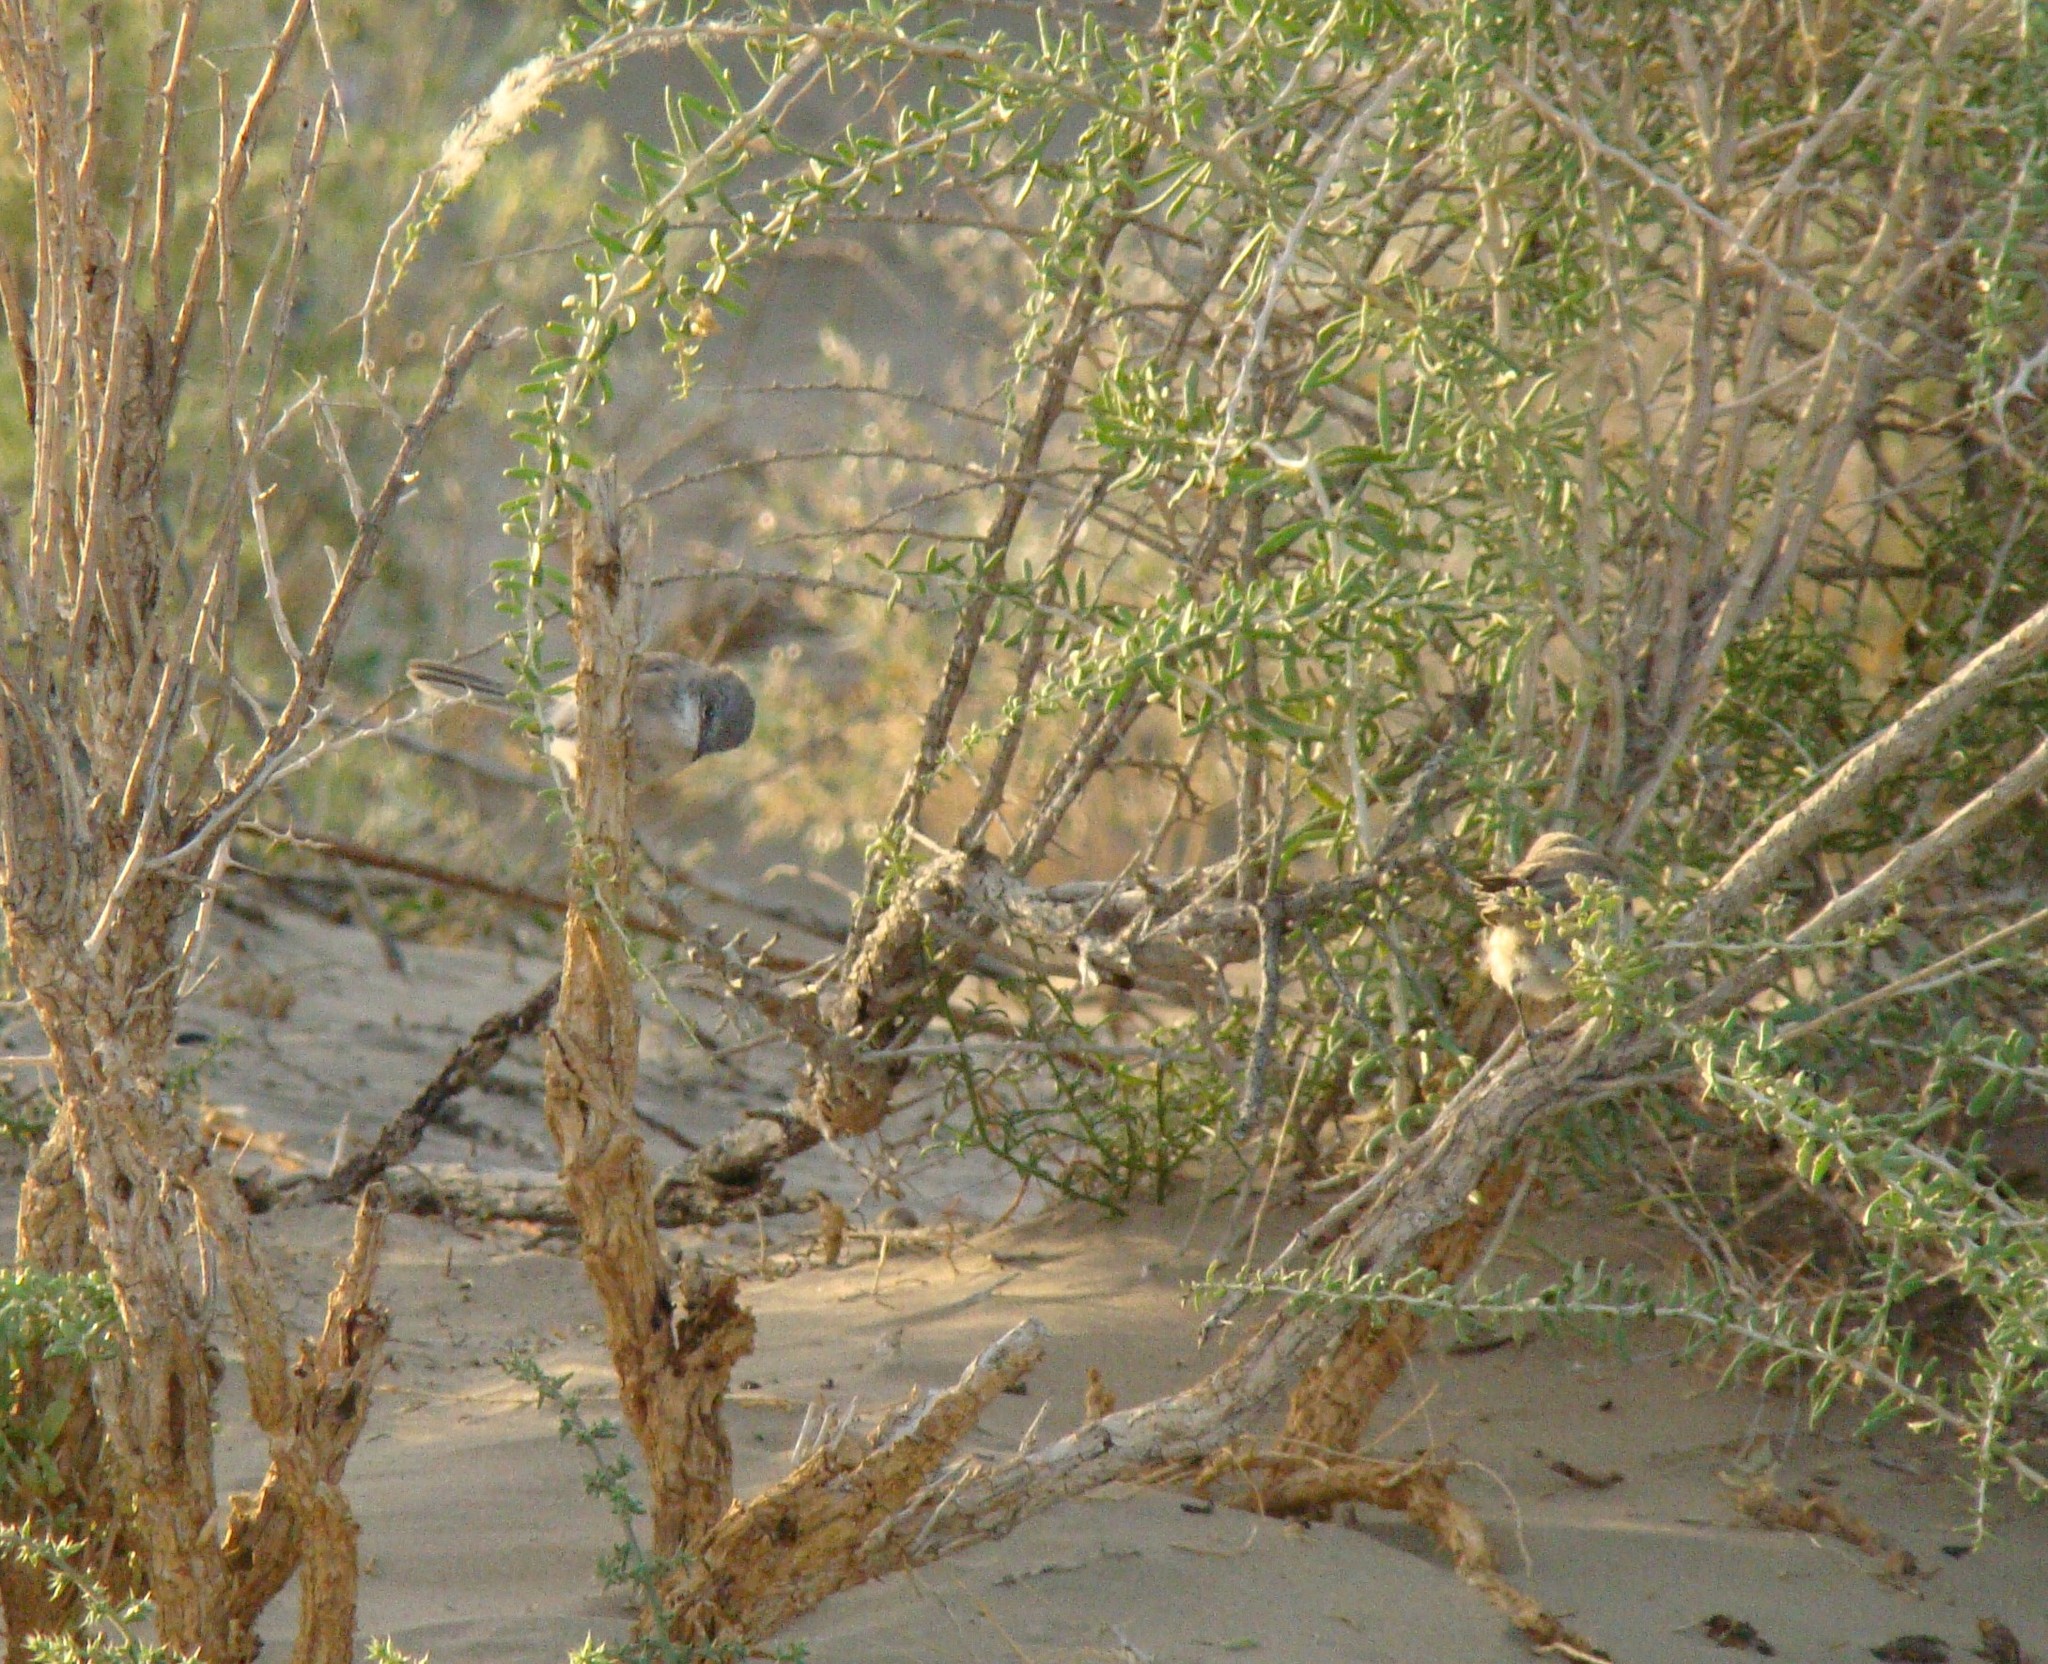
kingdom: Animalia
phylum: Chordata
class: Aves
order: Passeriformes
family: Sylviidae
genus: Sylvia
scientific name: Sylvia curruca
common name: Lesser whitethroat
